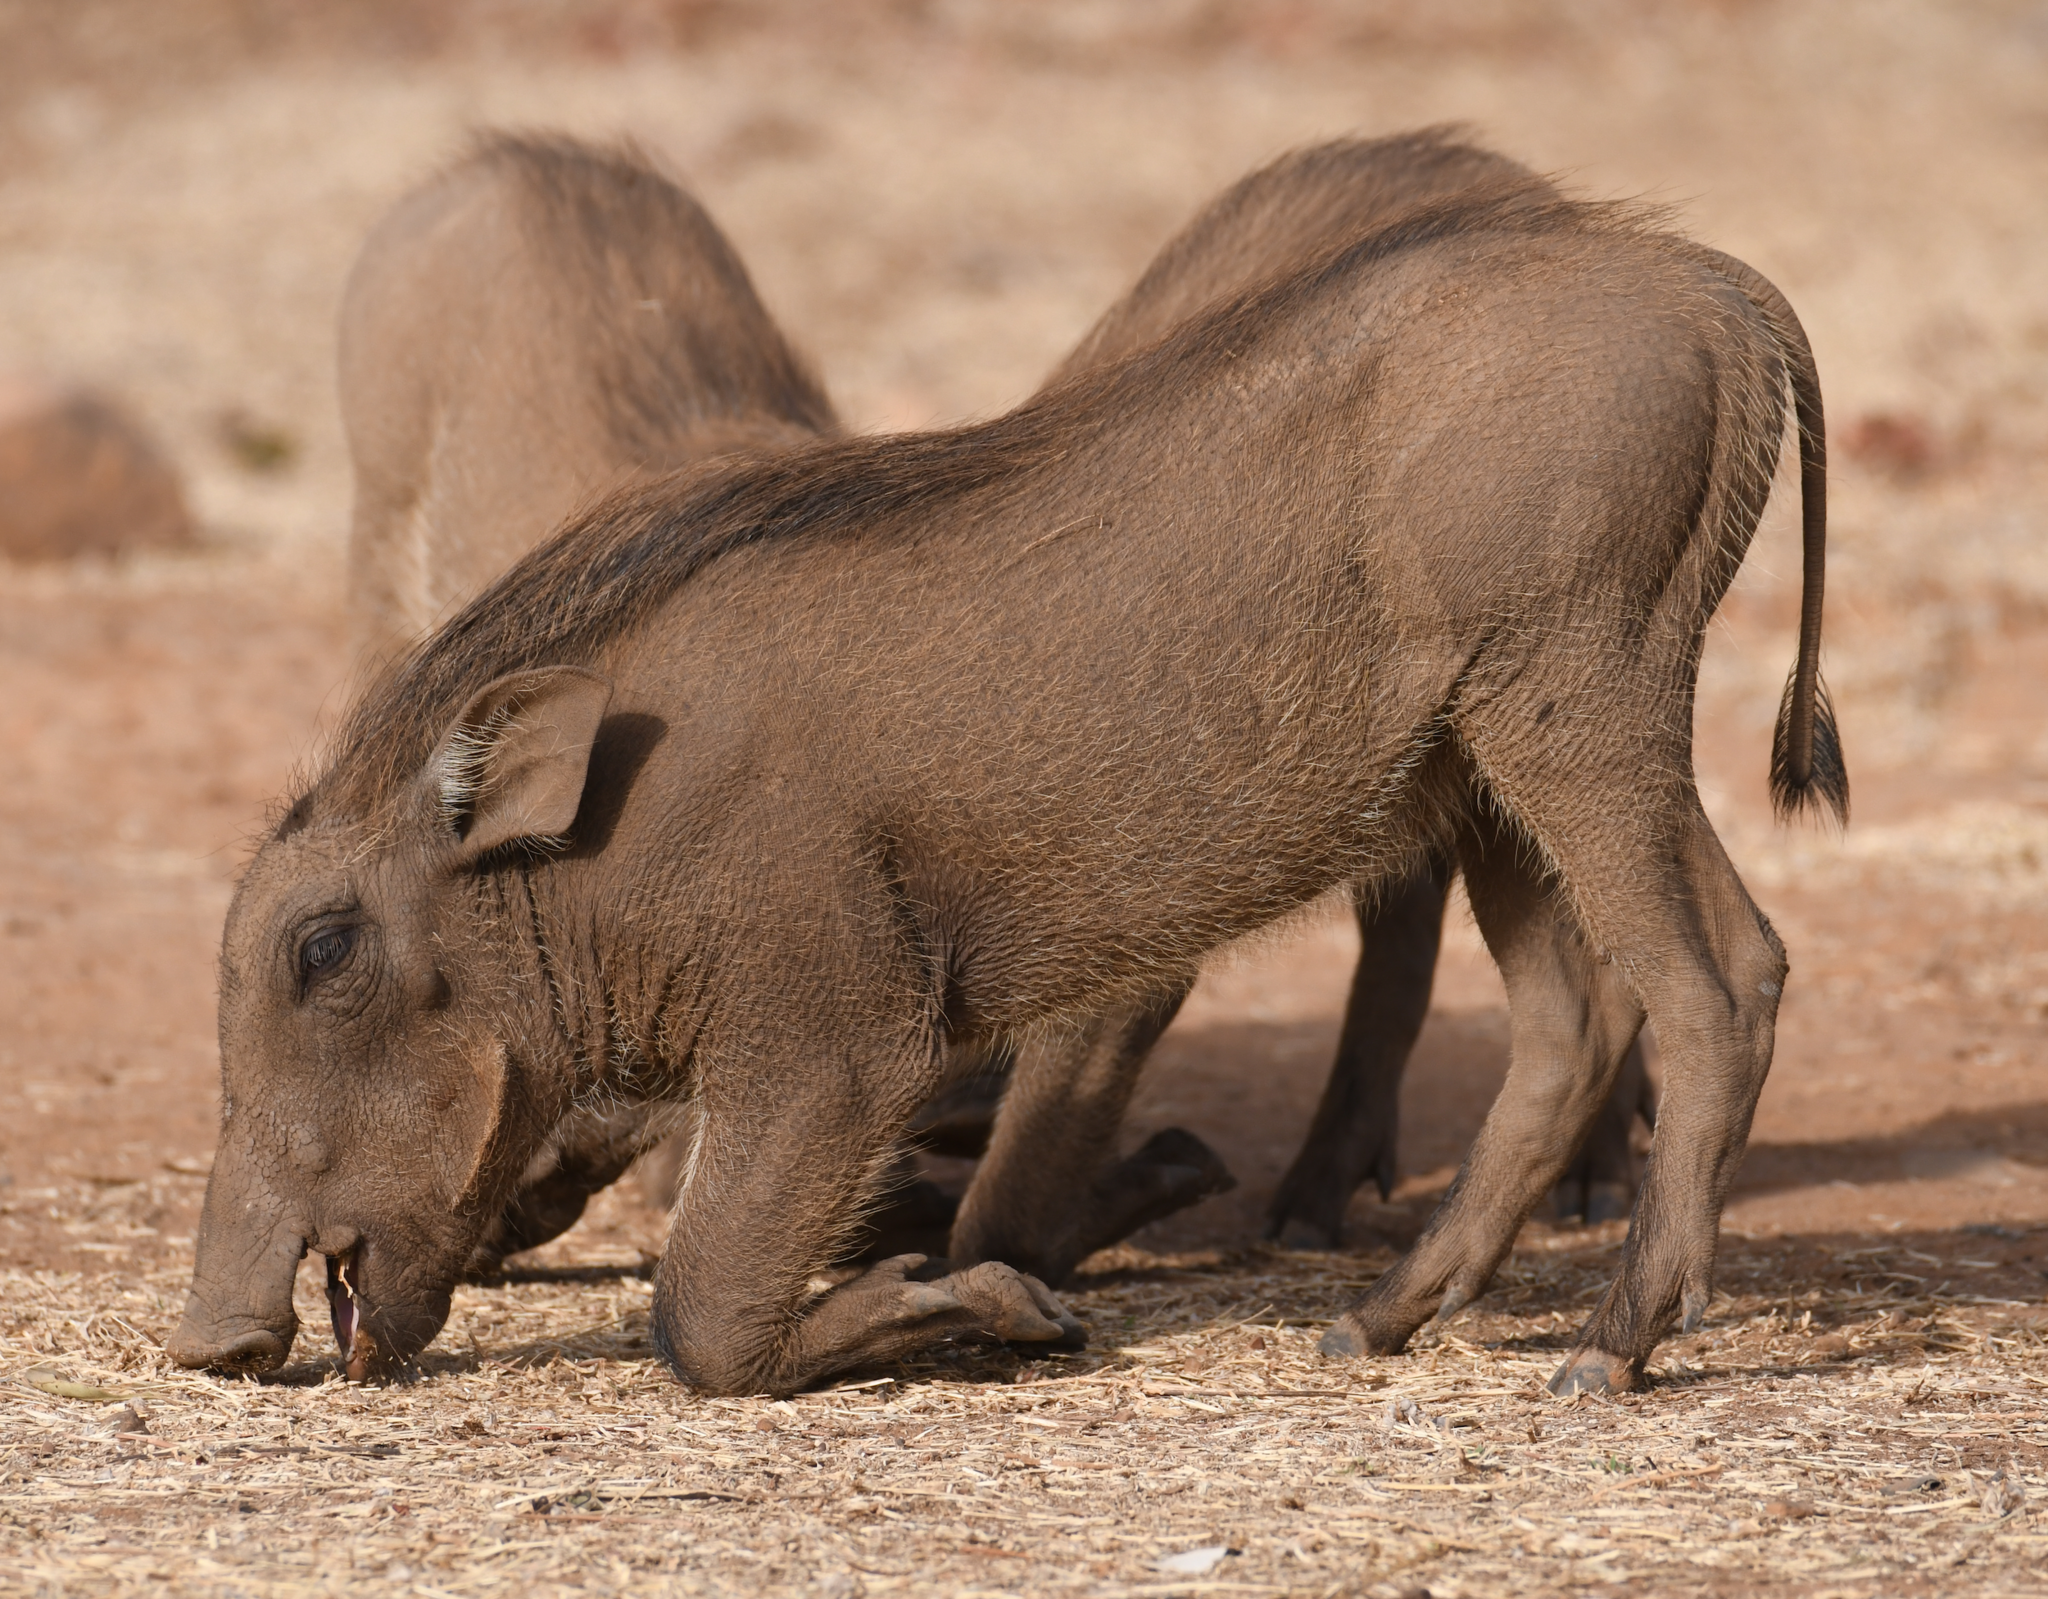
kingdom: Animalia
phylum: Chordata
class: Mammalia
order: Artiodactyla
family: Suidae
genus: Phacochoerus
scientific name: Phacochoerus africanus
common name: Common warthog
